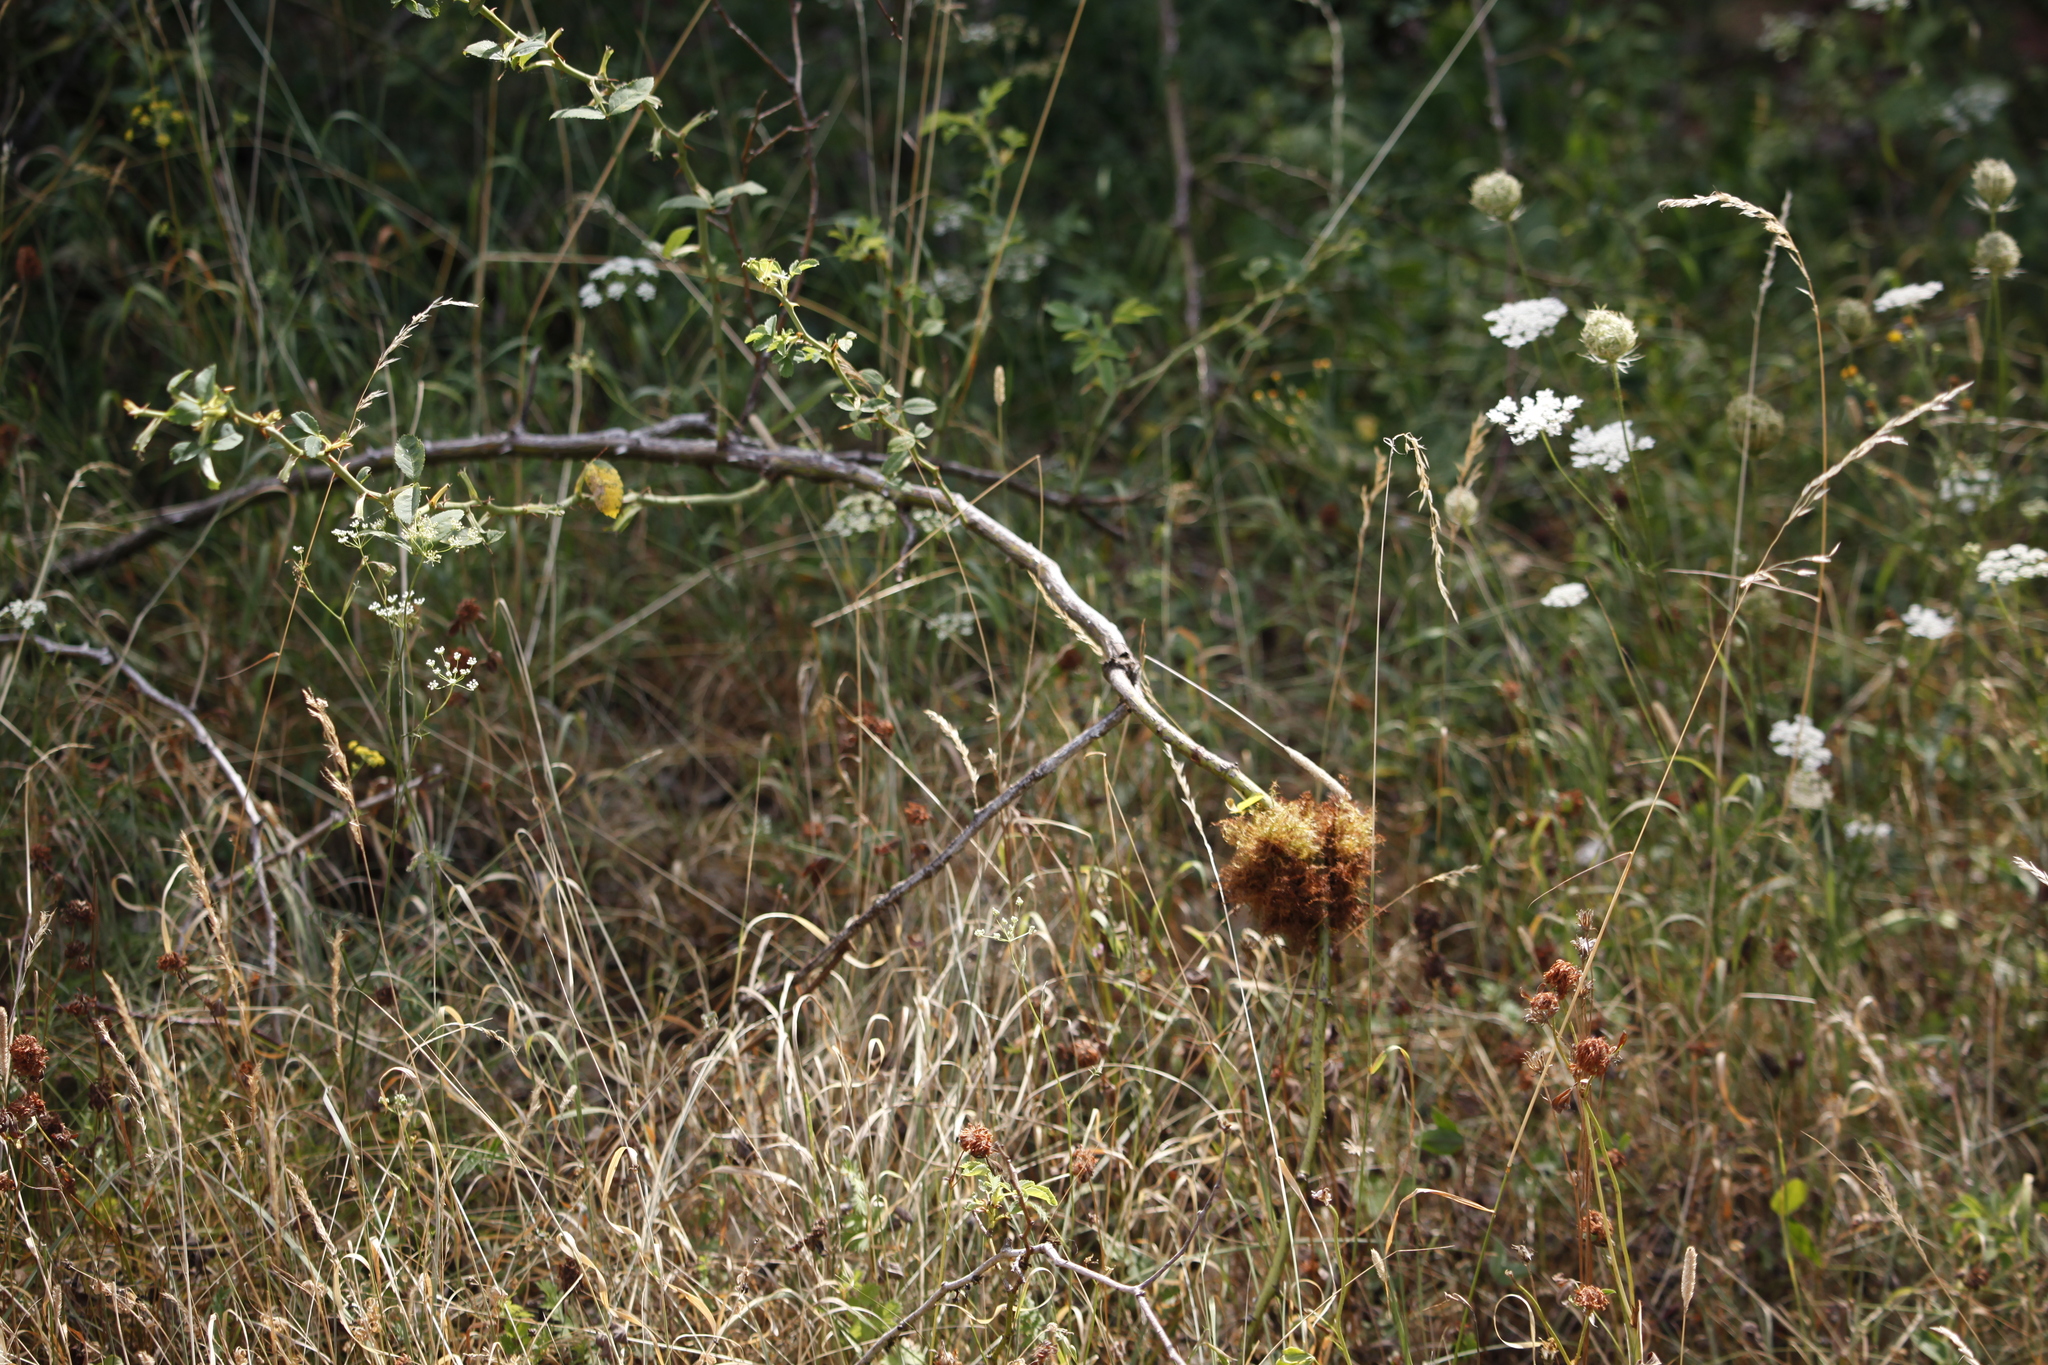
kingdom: Animalia
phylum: Arthropoda
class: Insecta
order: Hymenoptera
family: Cynipidae
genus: Diplolepis
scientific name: Diplolepis rosae
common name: Bedeguar gall
